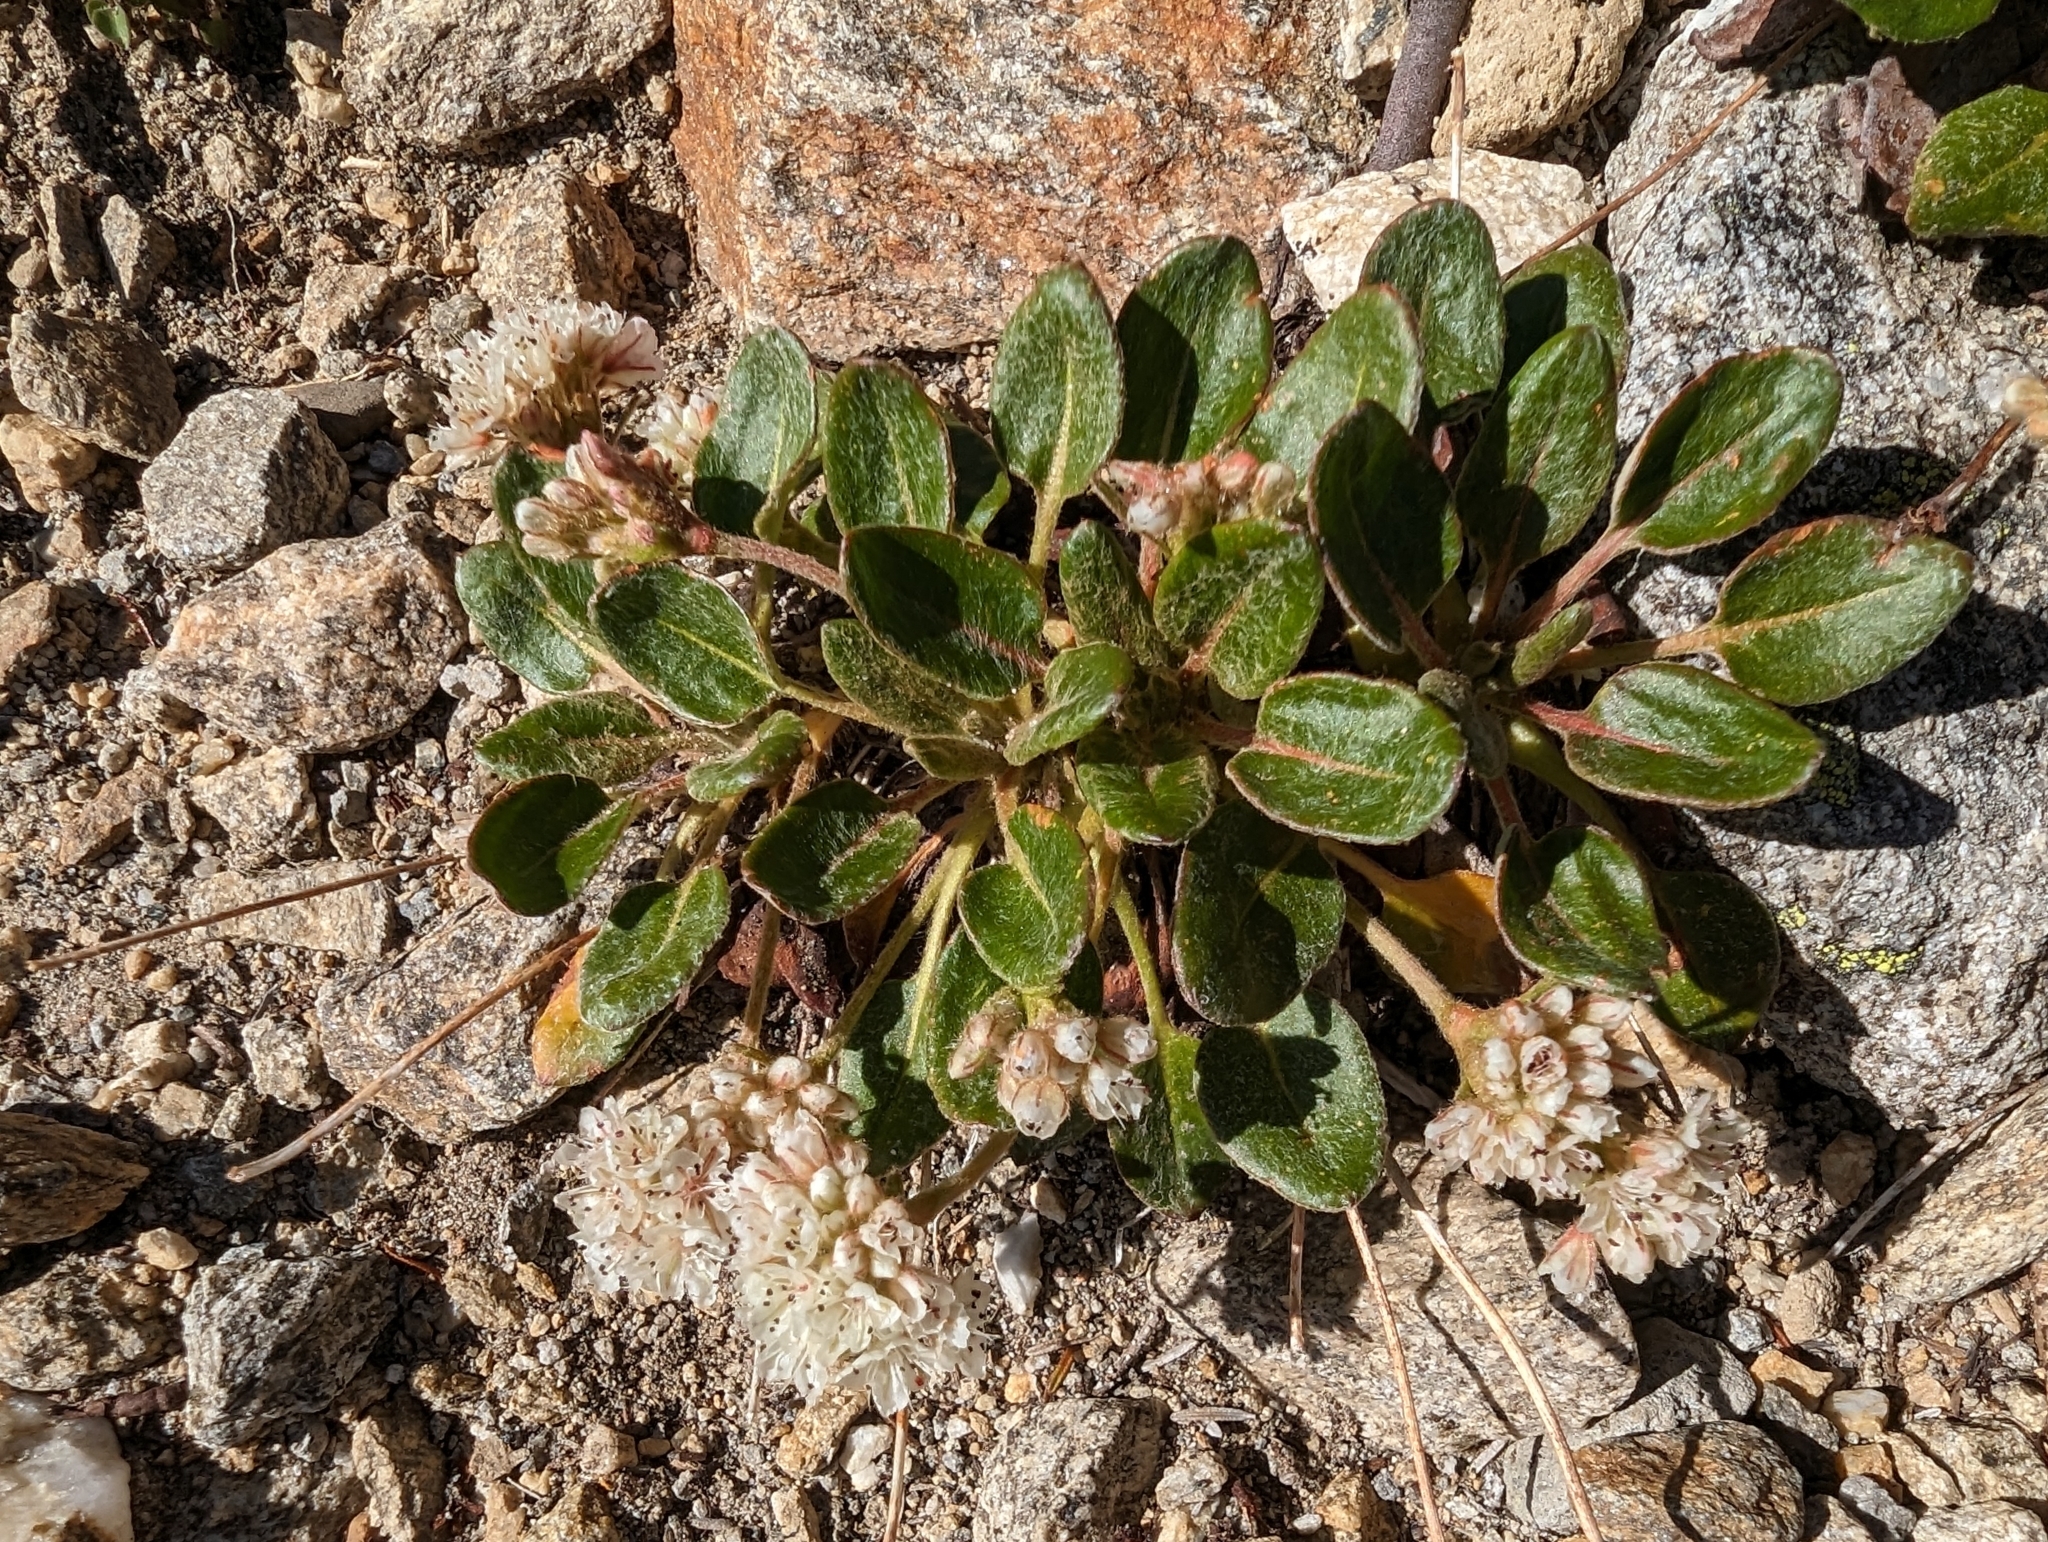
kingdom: Plantae
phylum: Tracheophyta
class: Magnoliopsida
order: Caryophyllales
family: Polygonaceae
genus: Eriogonum
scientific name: Eriogonum pyrolifolium
